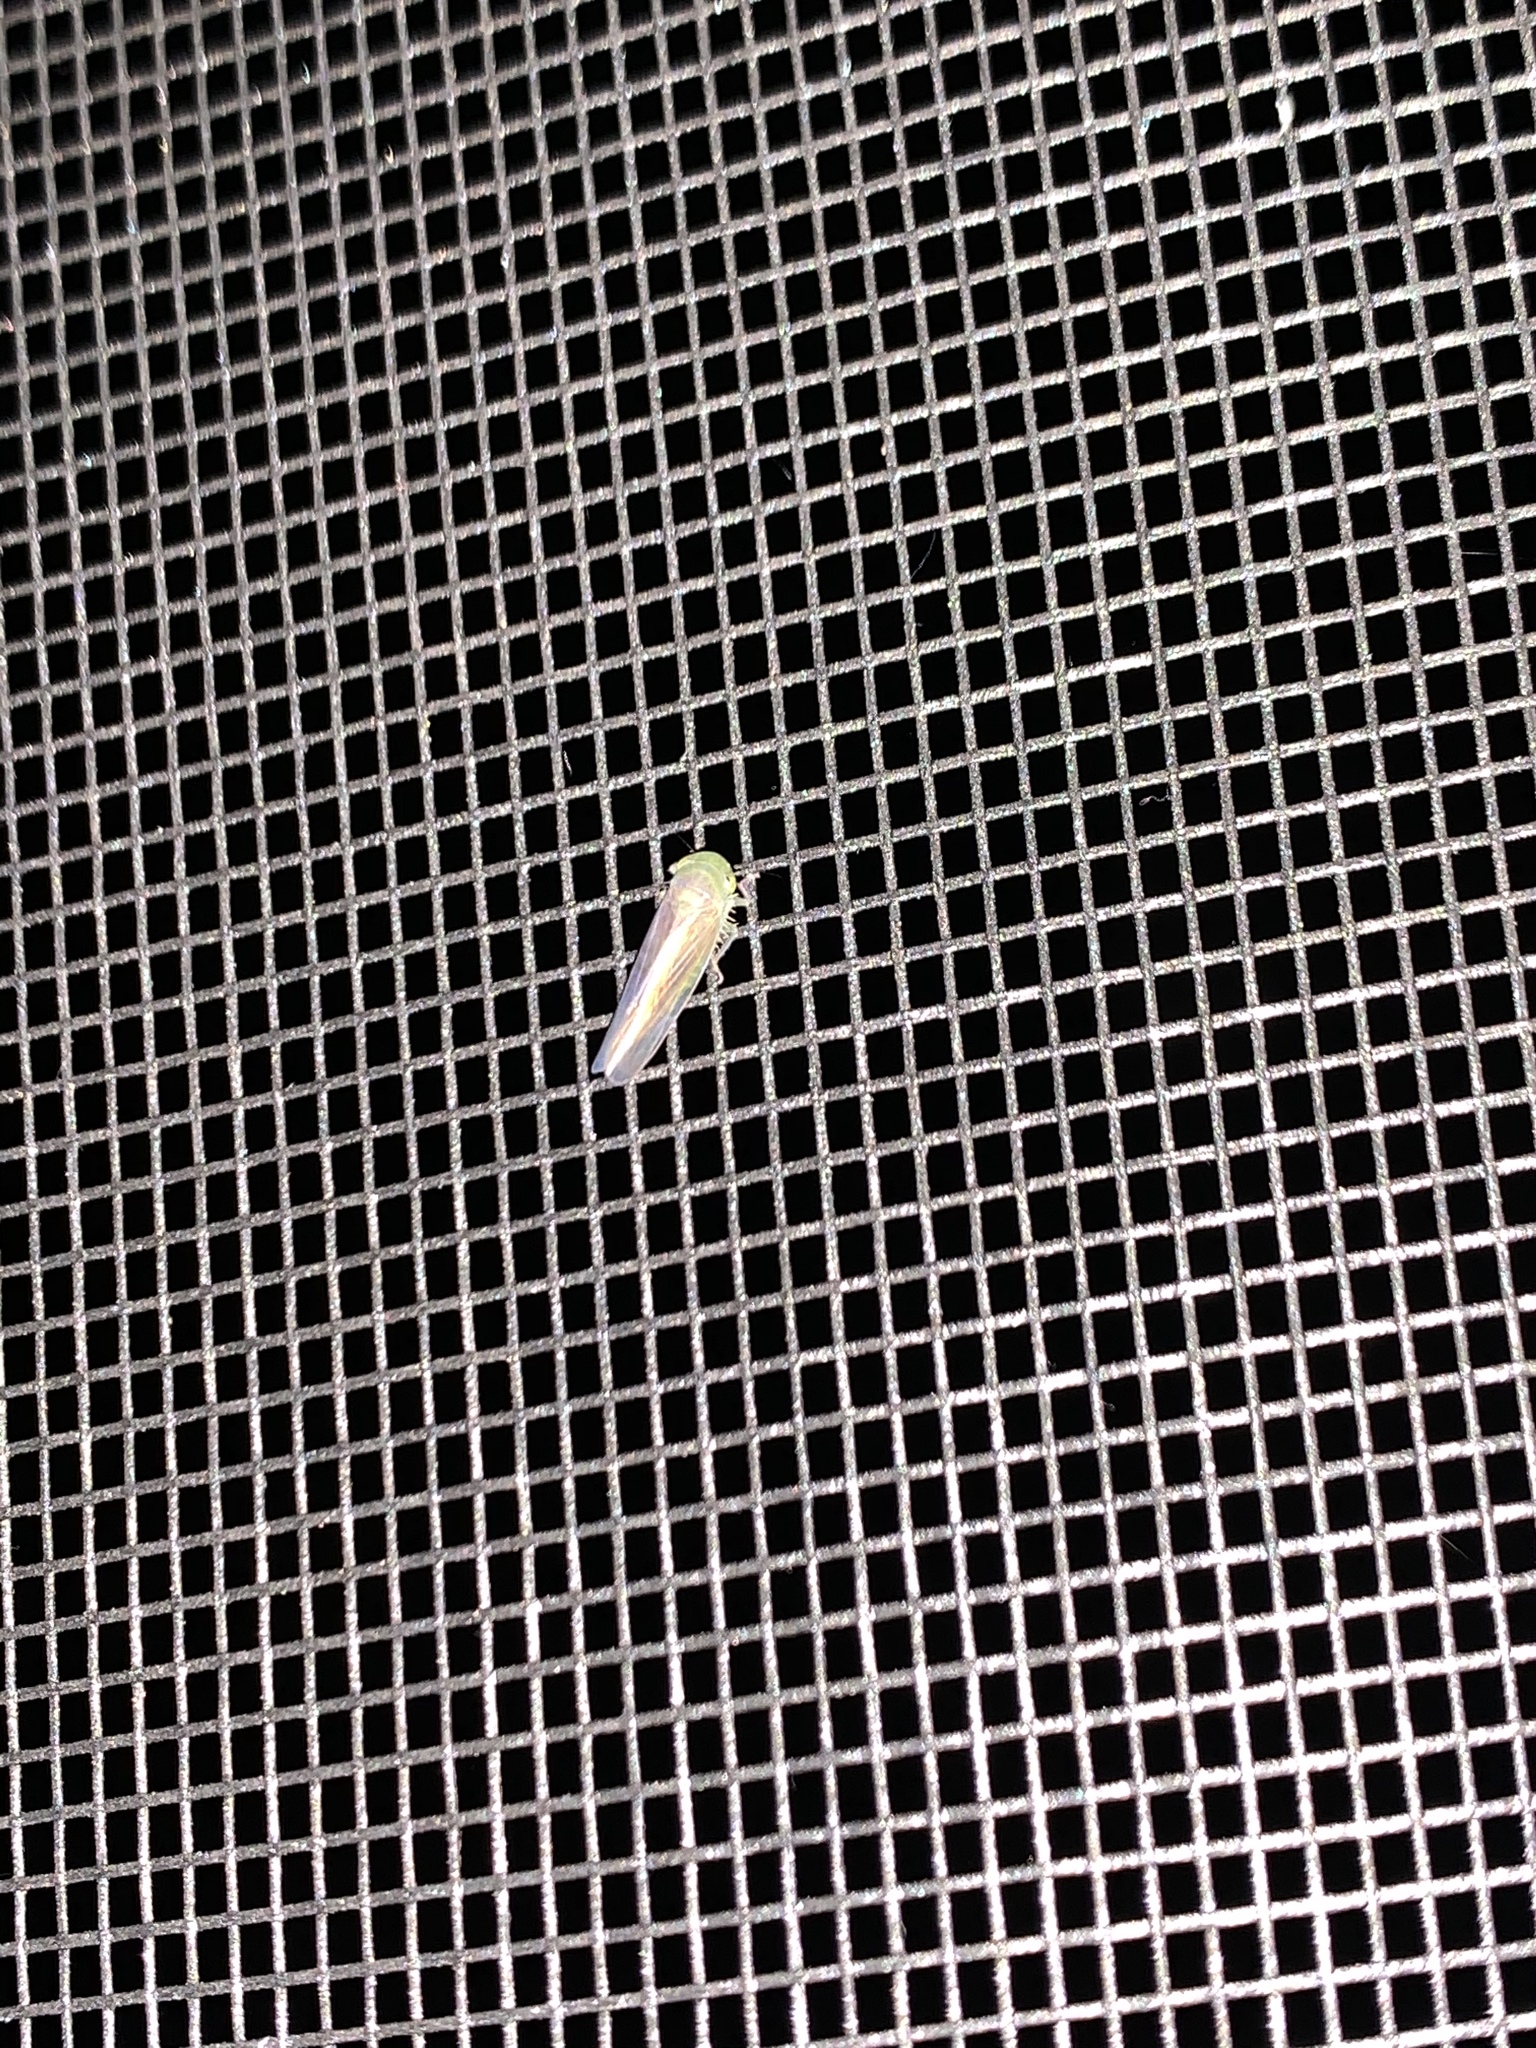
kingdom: Animalia
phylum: Arthropoda
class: Insecta
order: Hemiptera
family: Cicadellidae
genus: Chlorotettix
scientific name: Chlorotettix tergatus
